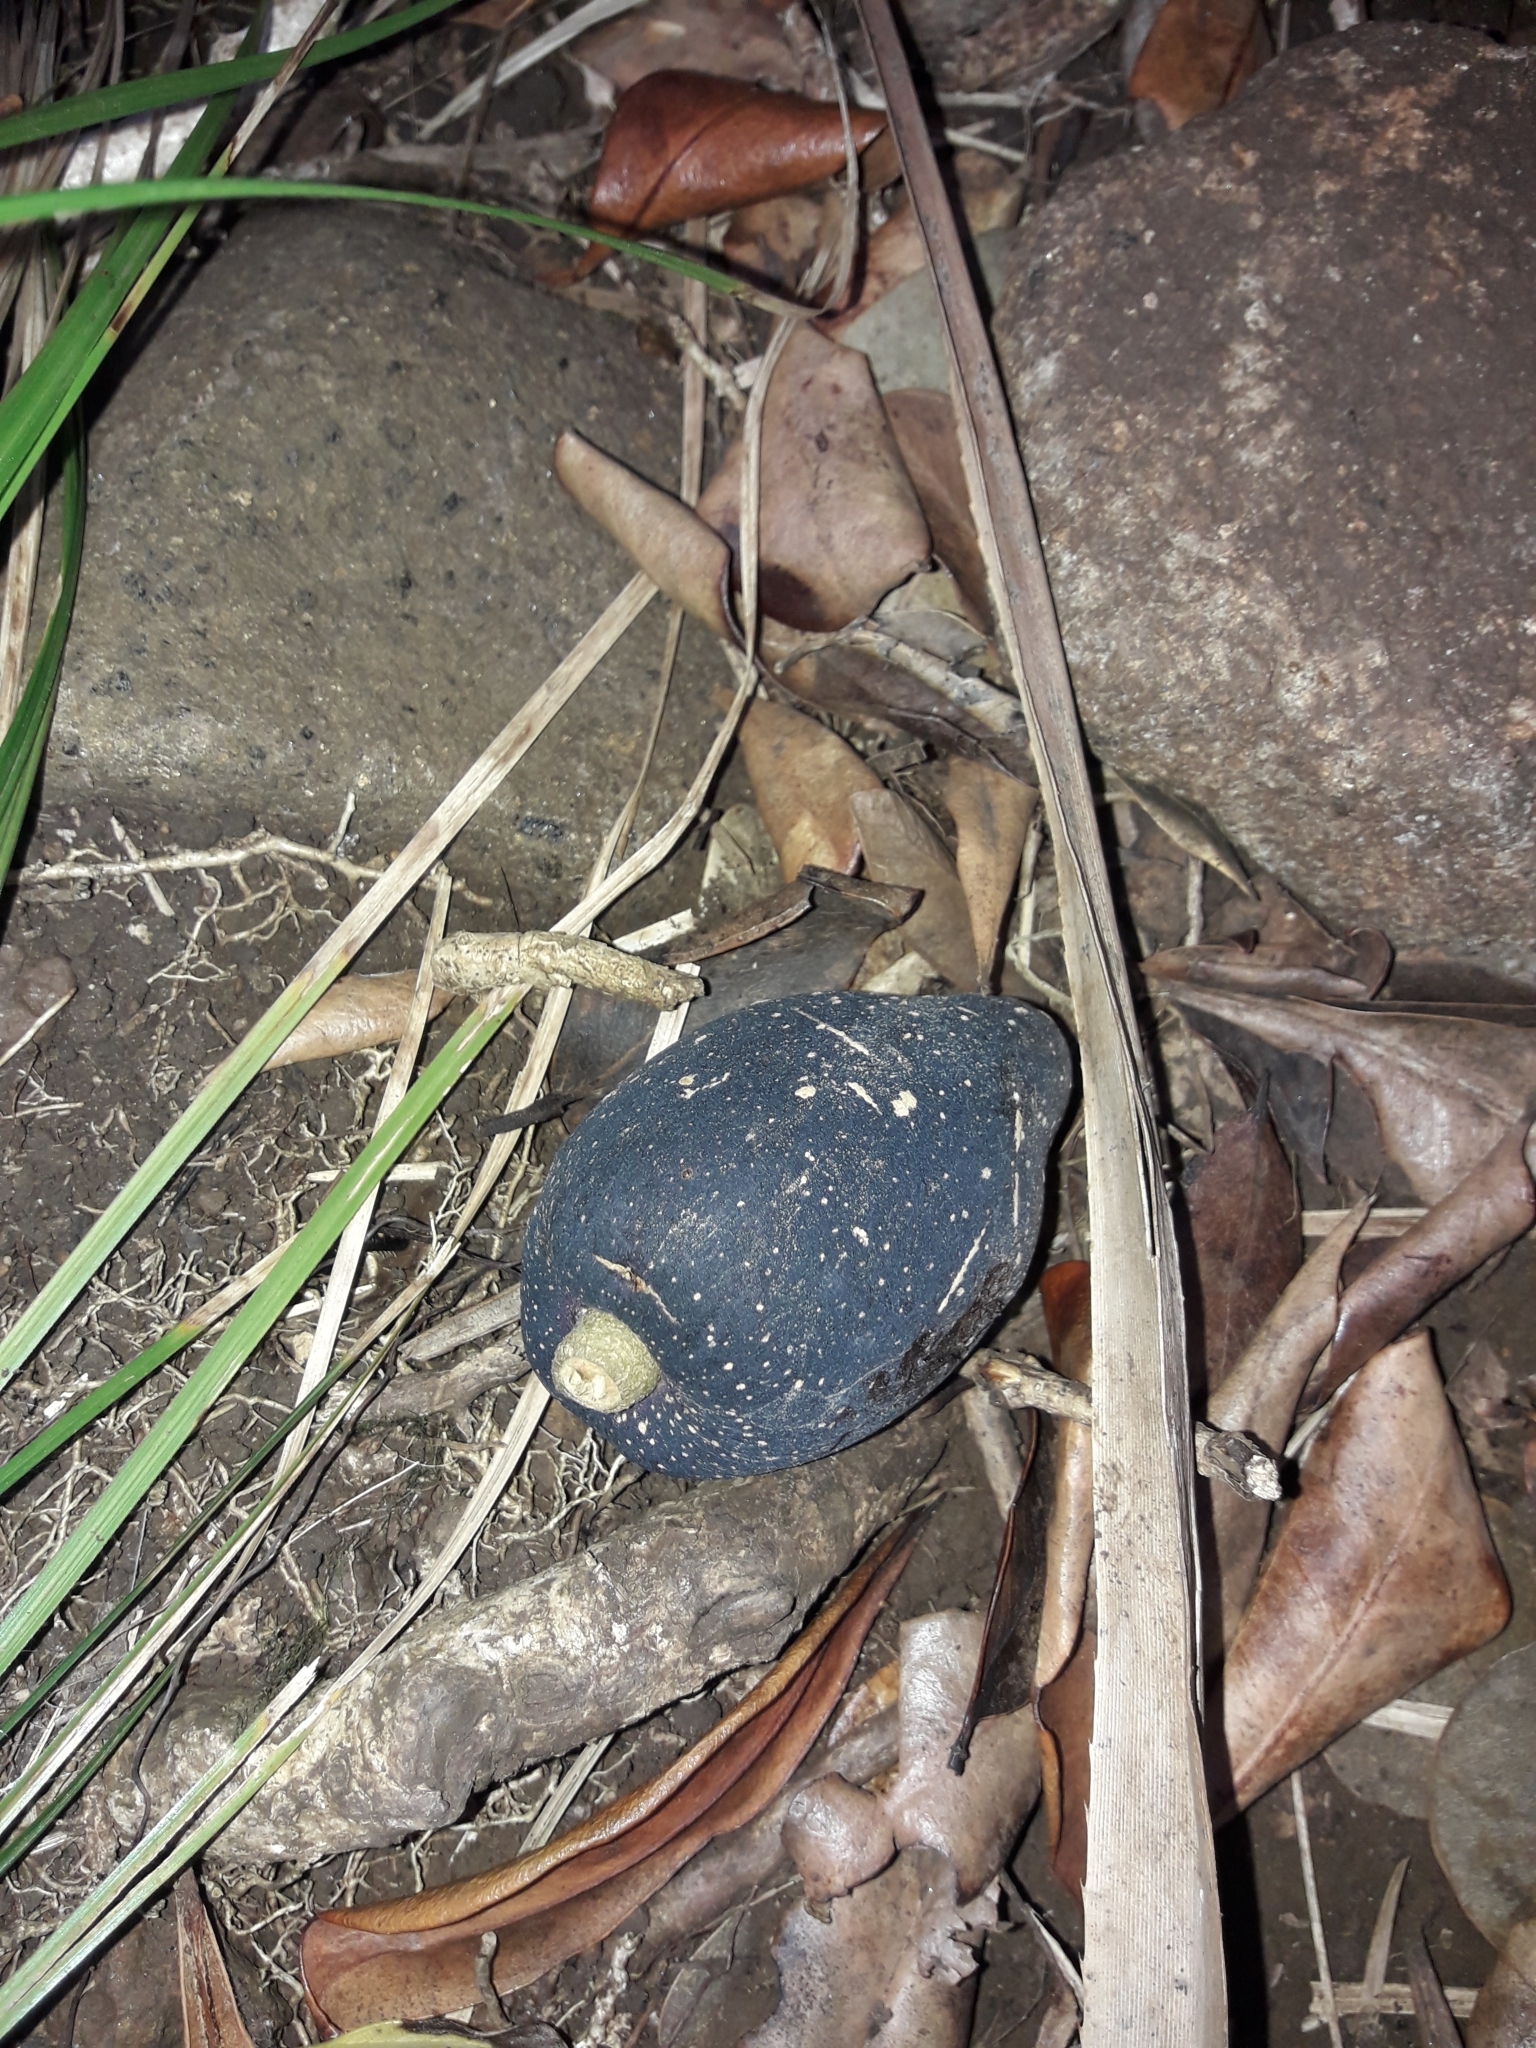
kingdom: Plantae
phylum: Tracheophyta
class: Magnoliopsida
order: Lamiales
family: Oleaceae
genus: Chionanthus
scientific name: Chionanthus quadristamineus
